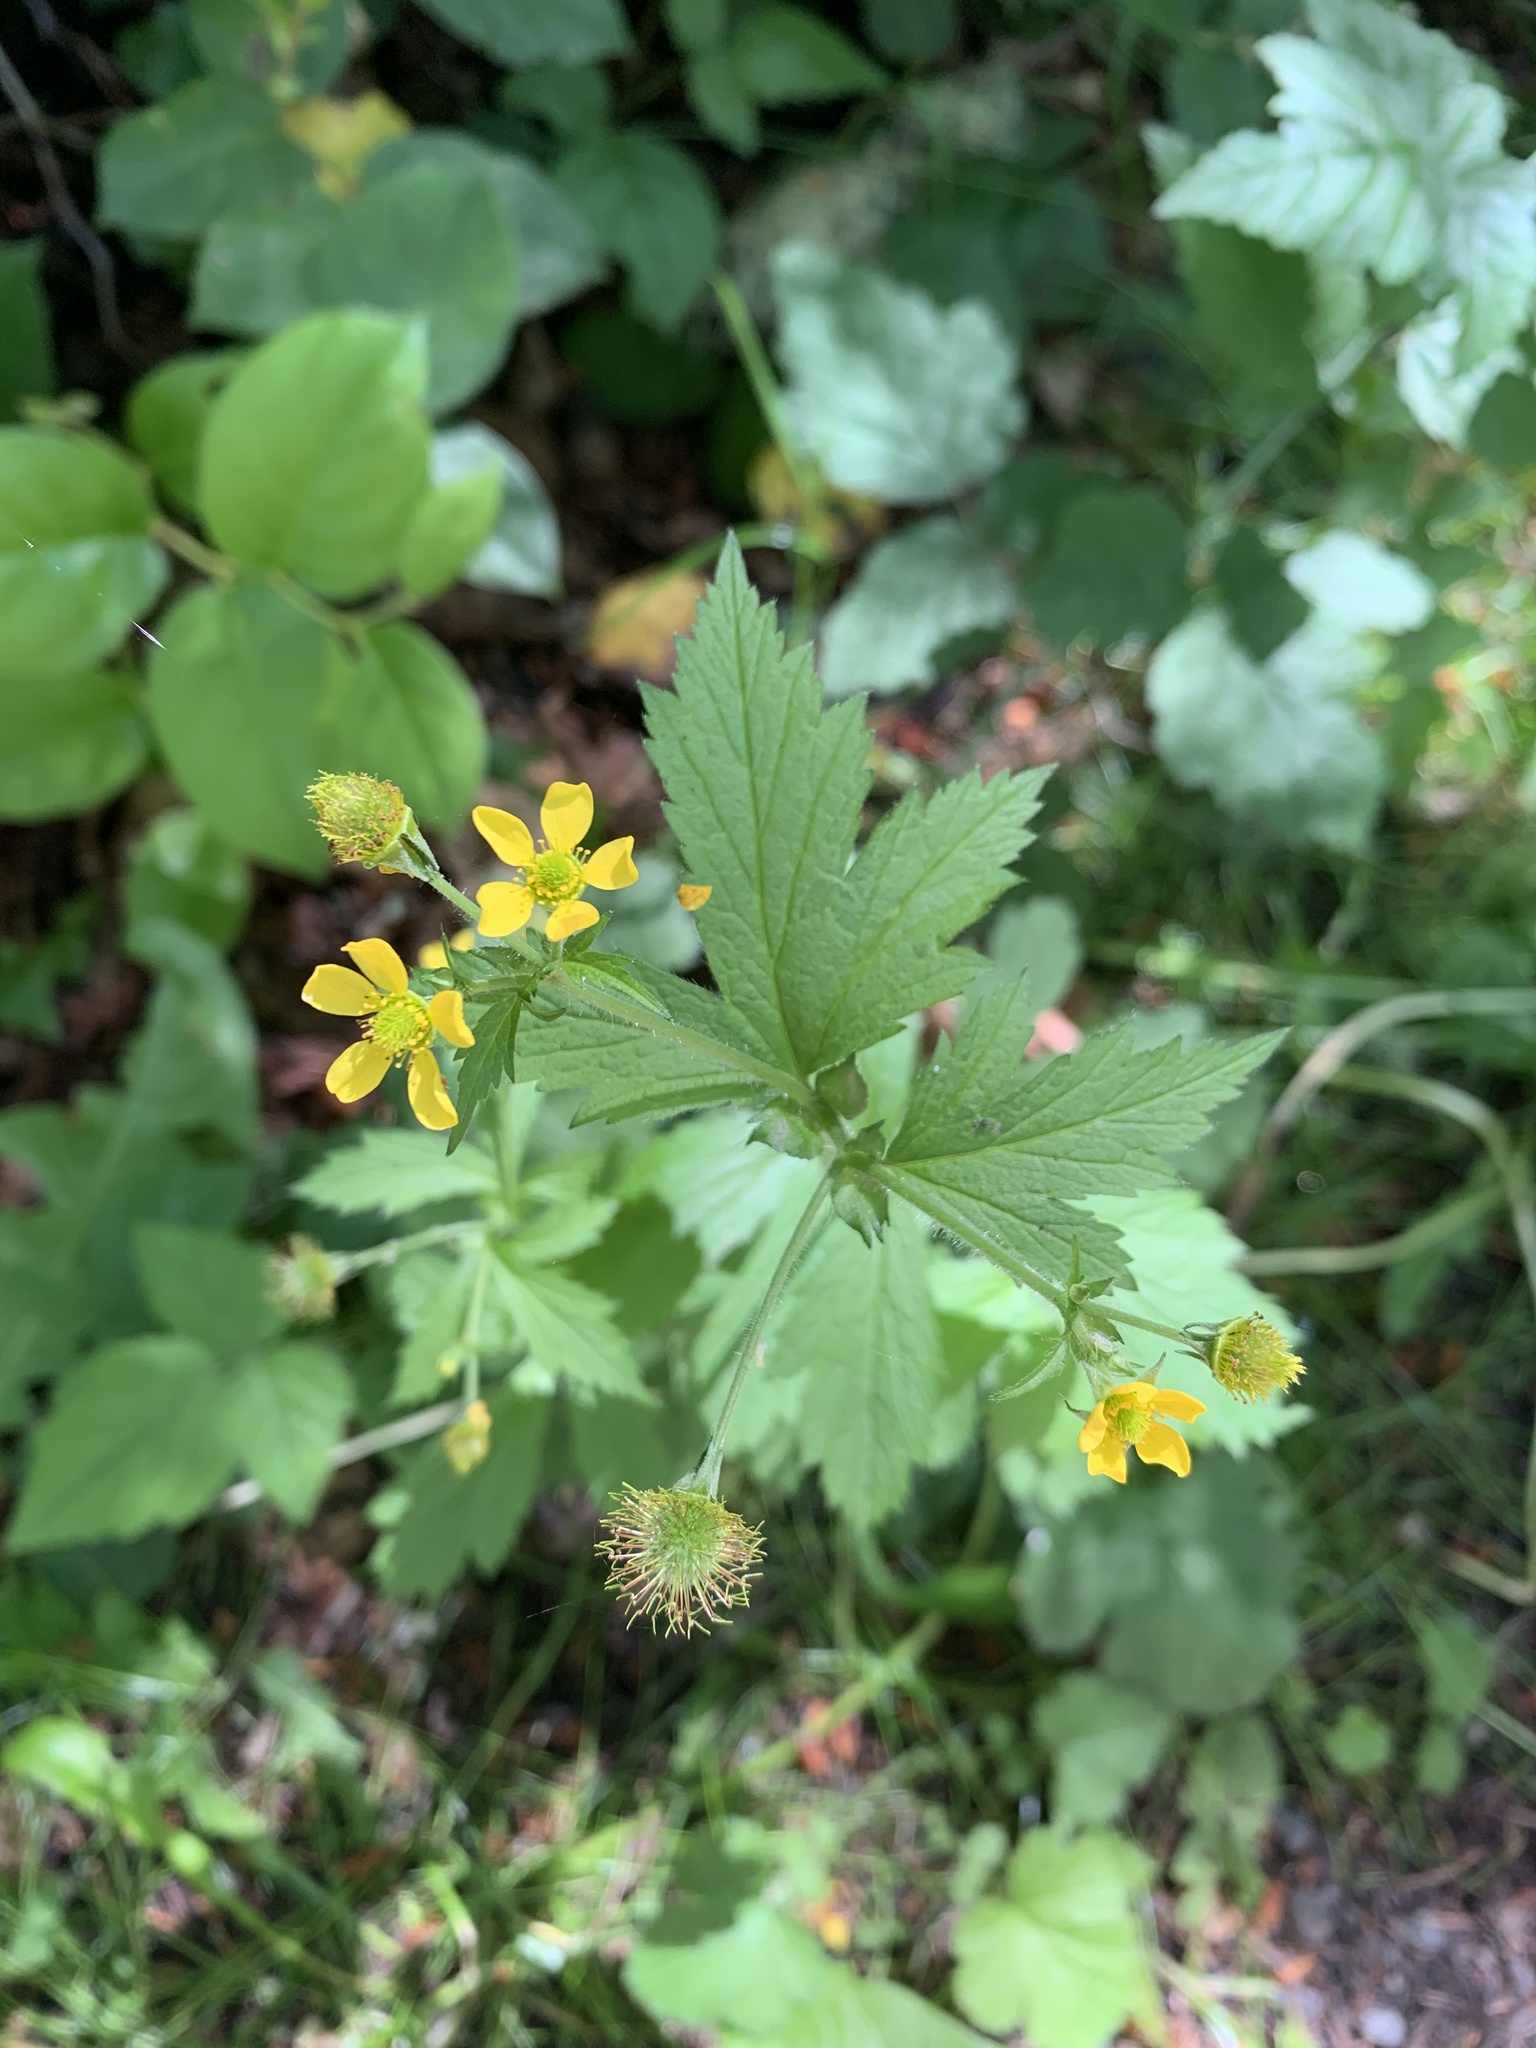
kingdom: Plantae
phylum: Tracheophyta
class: Magnoliopsida
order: Rosales
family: Rosaceae
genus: Geum
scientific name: Geum macrophyllum
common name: Large-leaved avens
